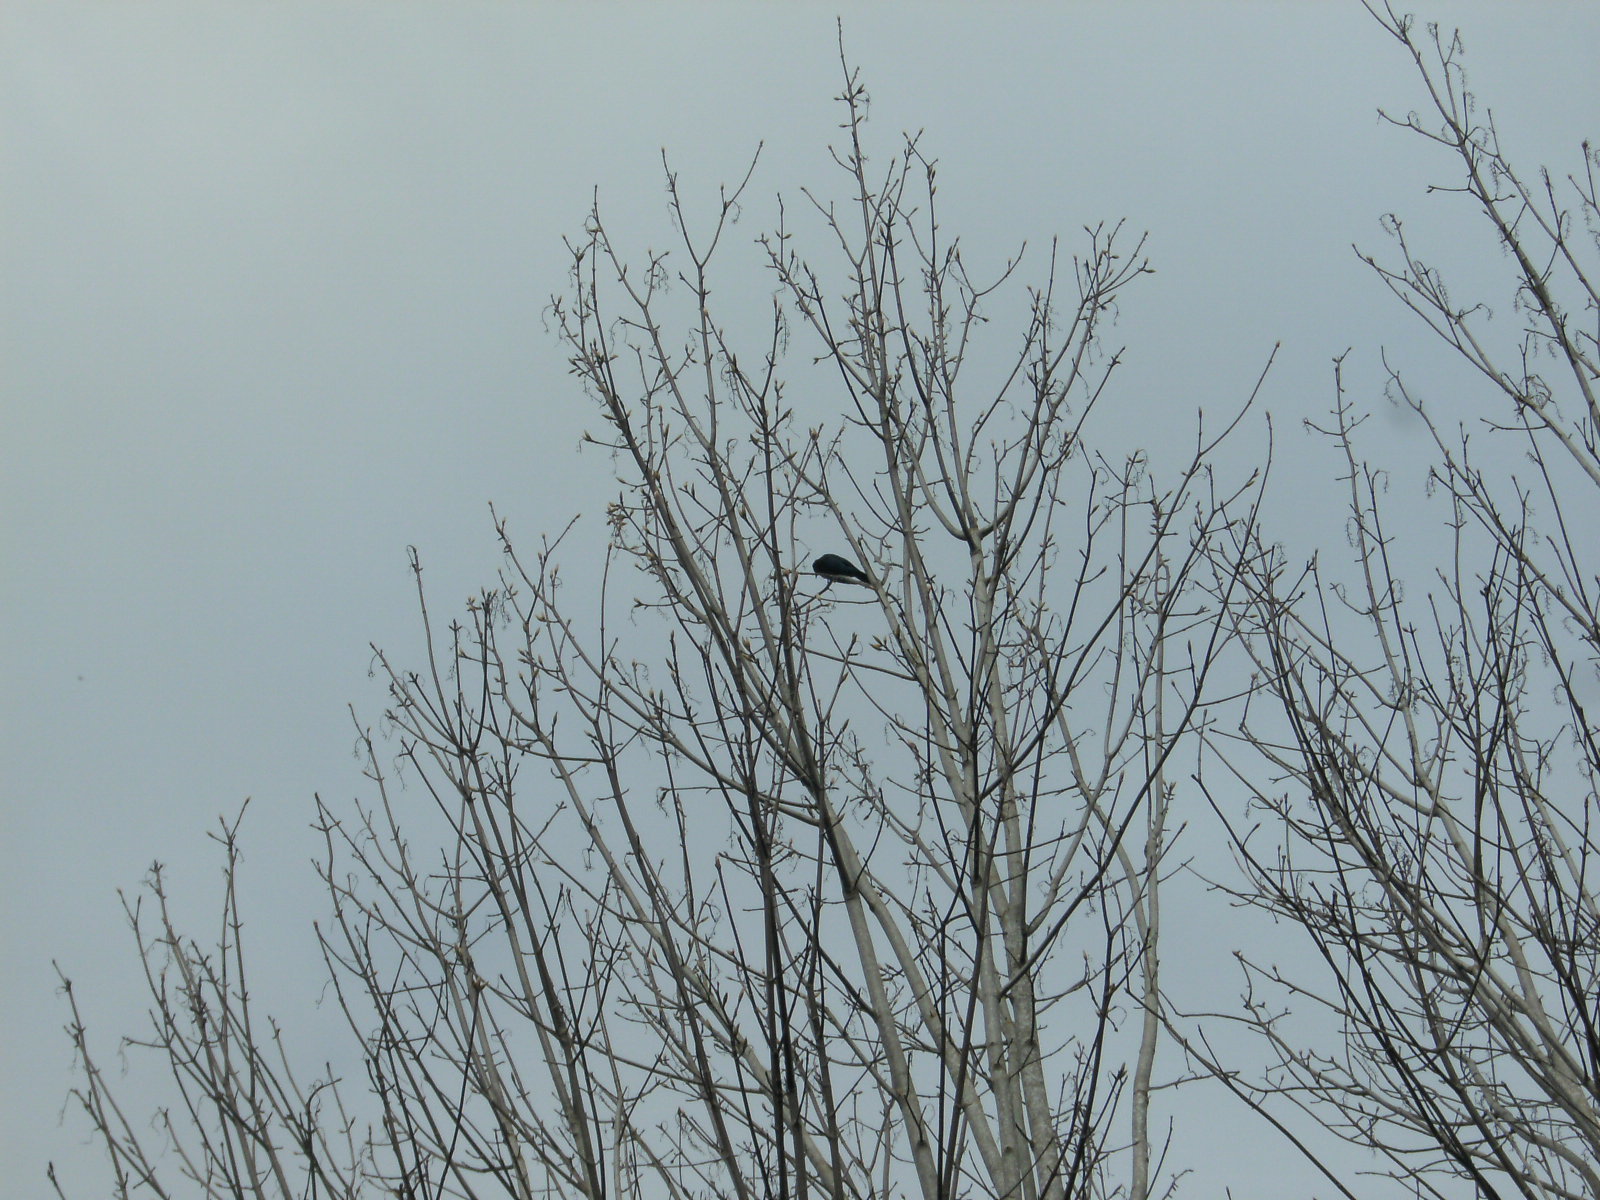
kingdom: Animalia
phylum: Chordata
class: Aves
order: Passeriformes
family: Corvidae
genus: Cyanocitta
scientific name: Cyanocitta stelleri
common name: Steller's jay
